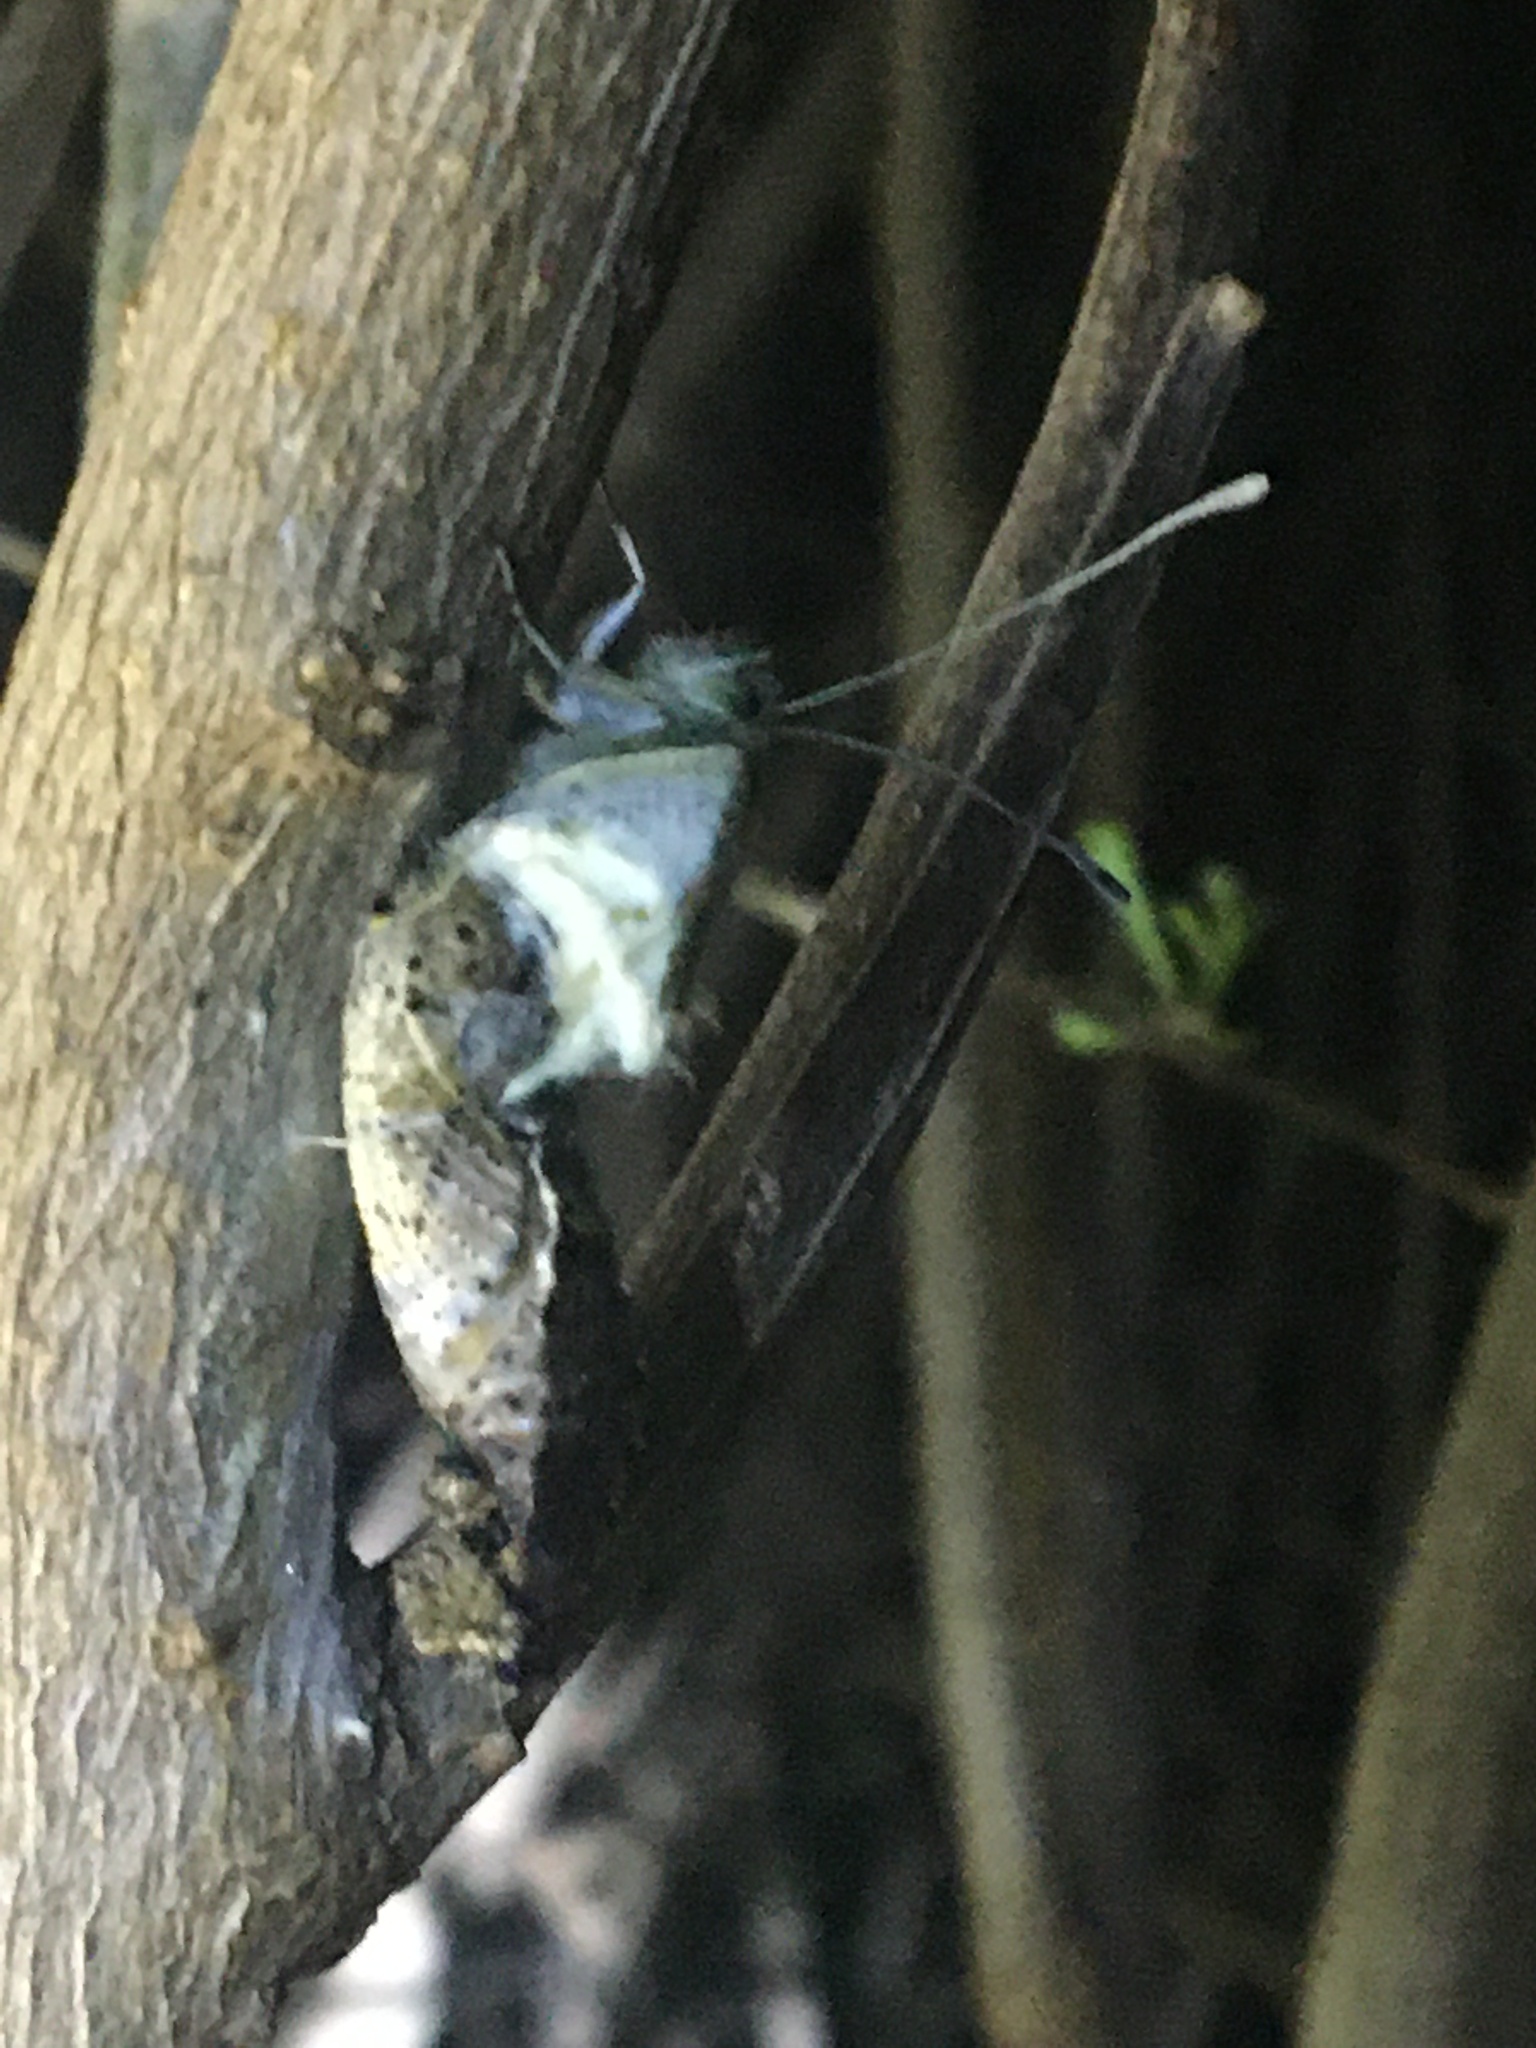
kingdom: Animalia
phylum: Arthropoda
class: Insecta
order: Lepidoptera
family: Pieridae
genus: Pieris
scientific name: Pieris brassicae
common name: Large white
